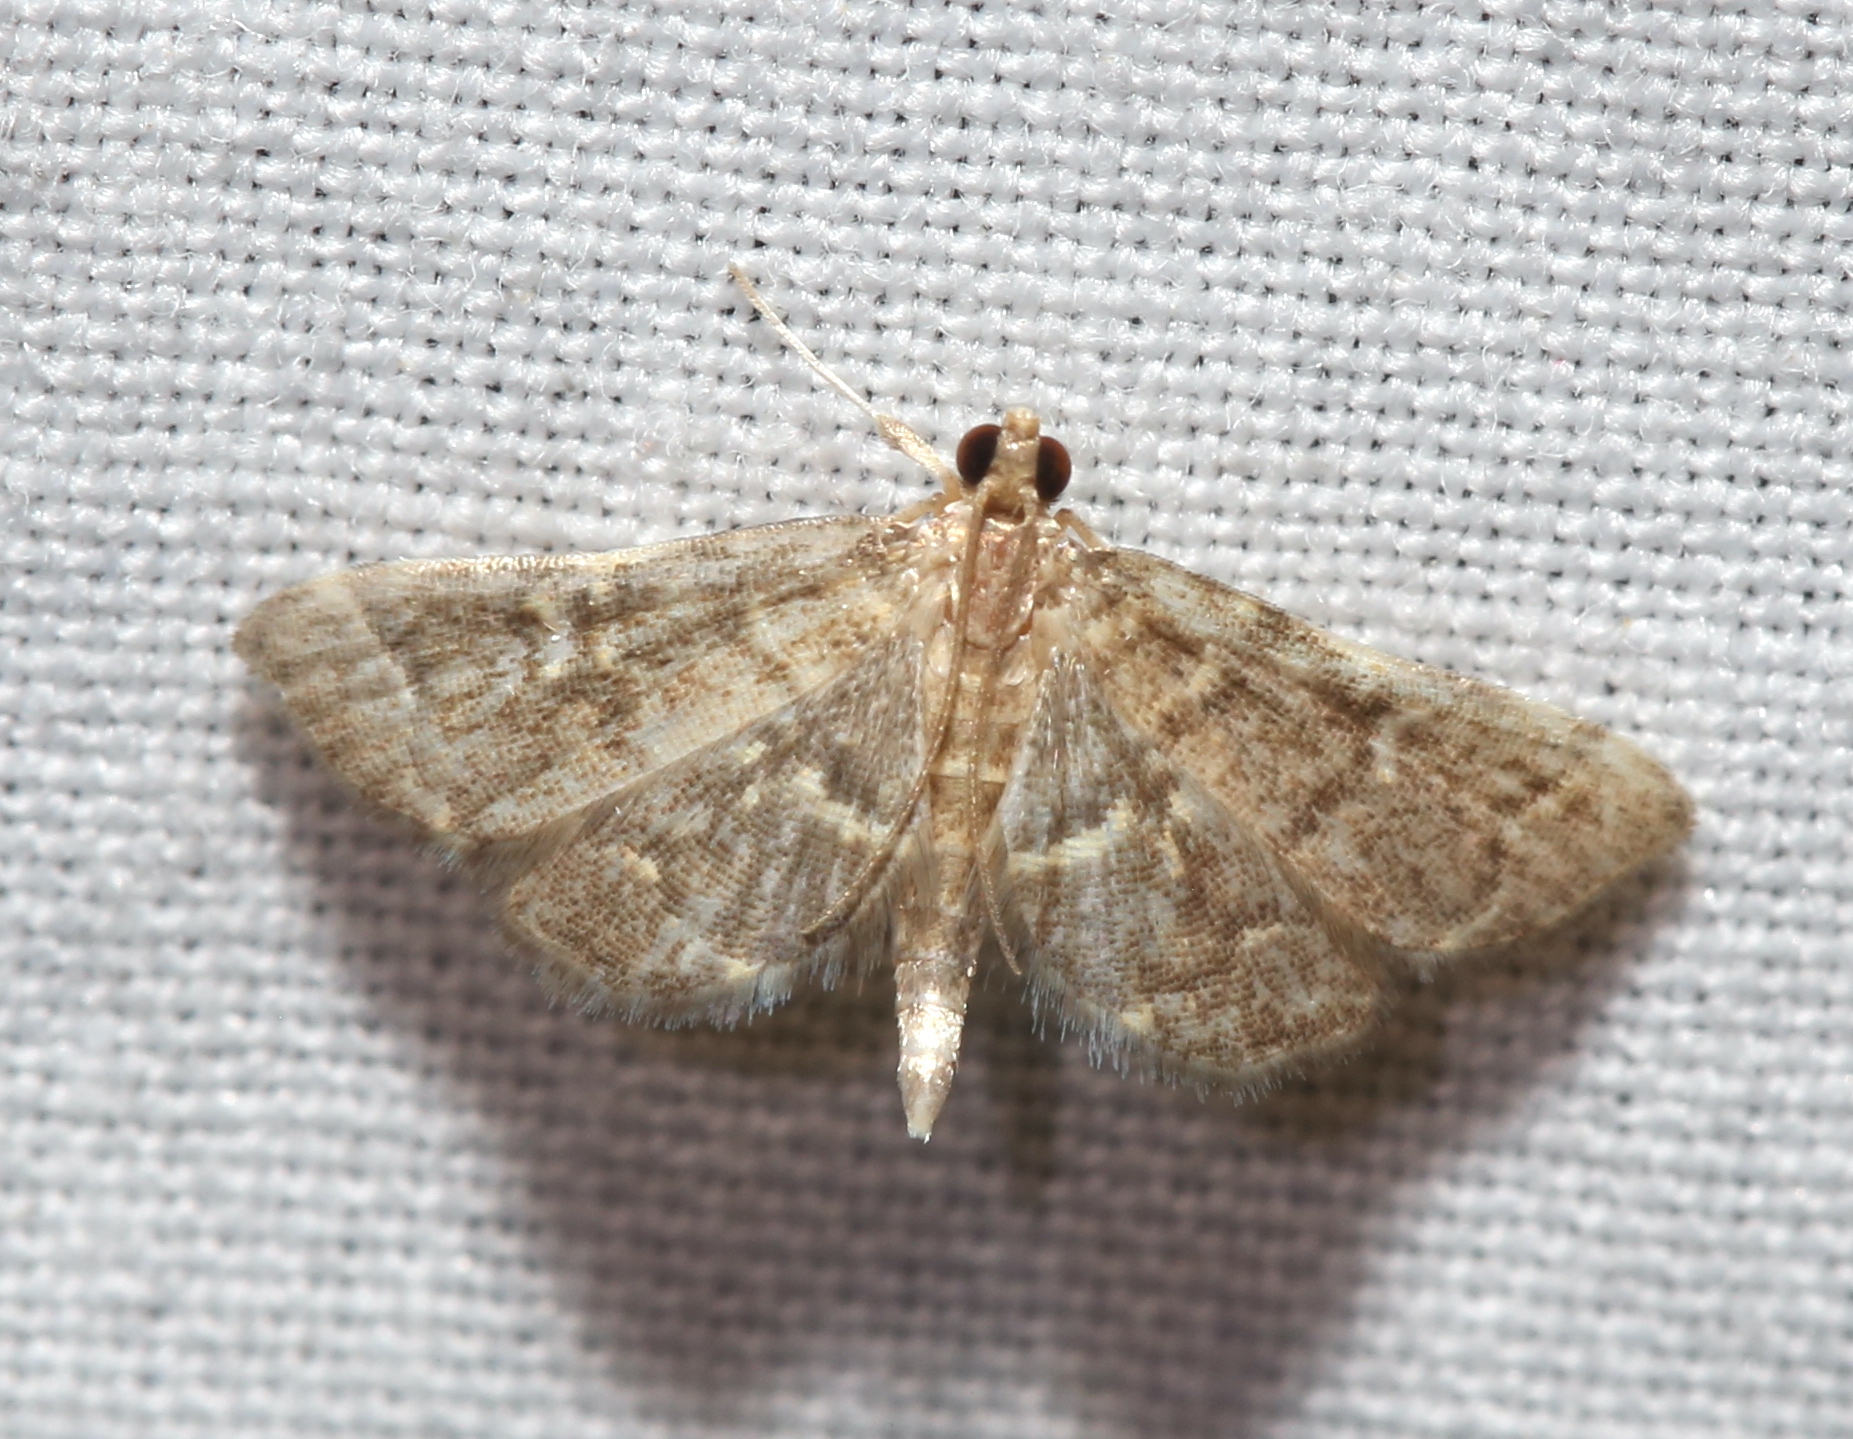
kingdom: Animalia
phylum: Arthropoda
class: Insecta
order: Lepidoptera
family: Crambidae
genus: Anageshna
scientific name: Anageshna primordialis
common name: Yellow-spotted webworm moth
